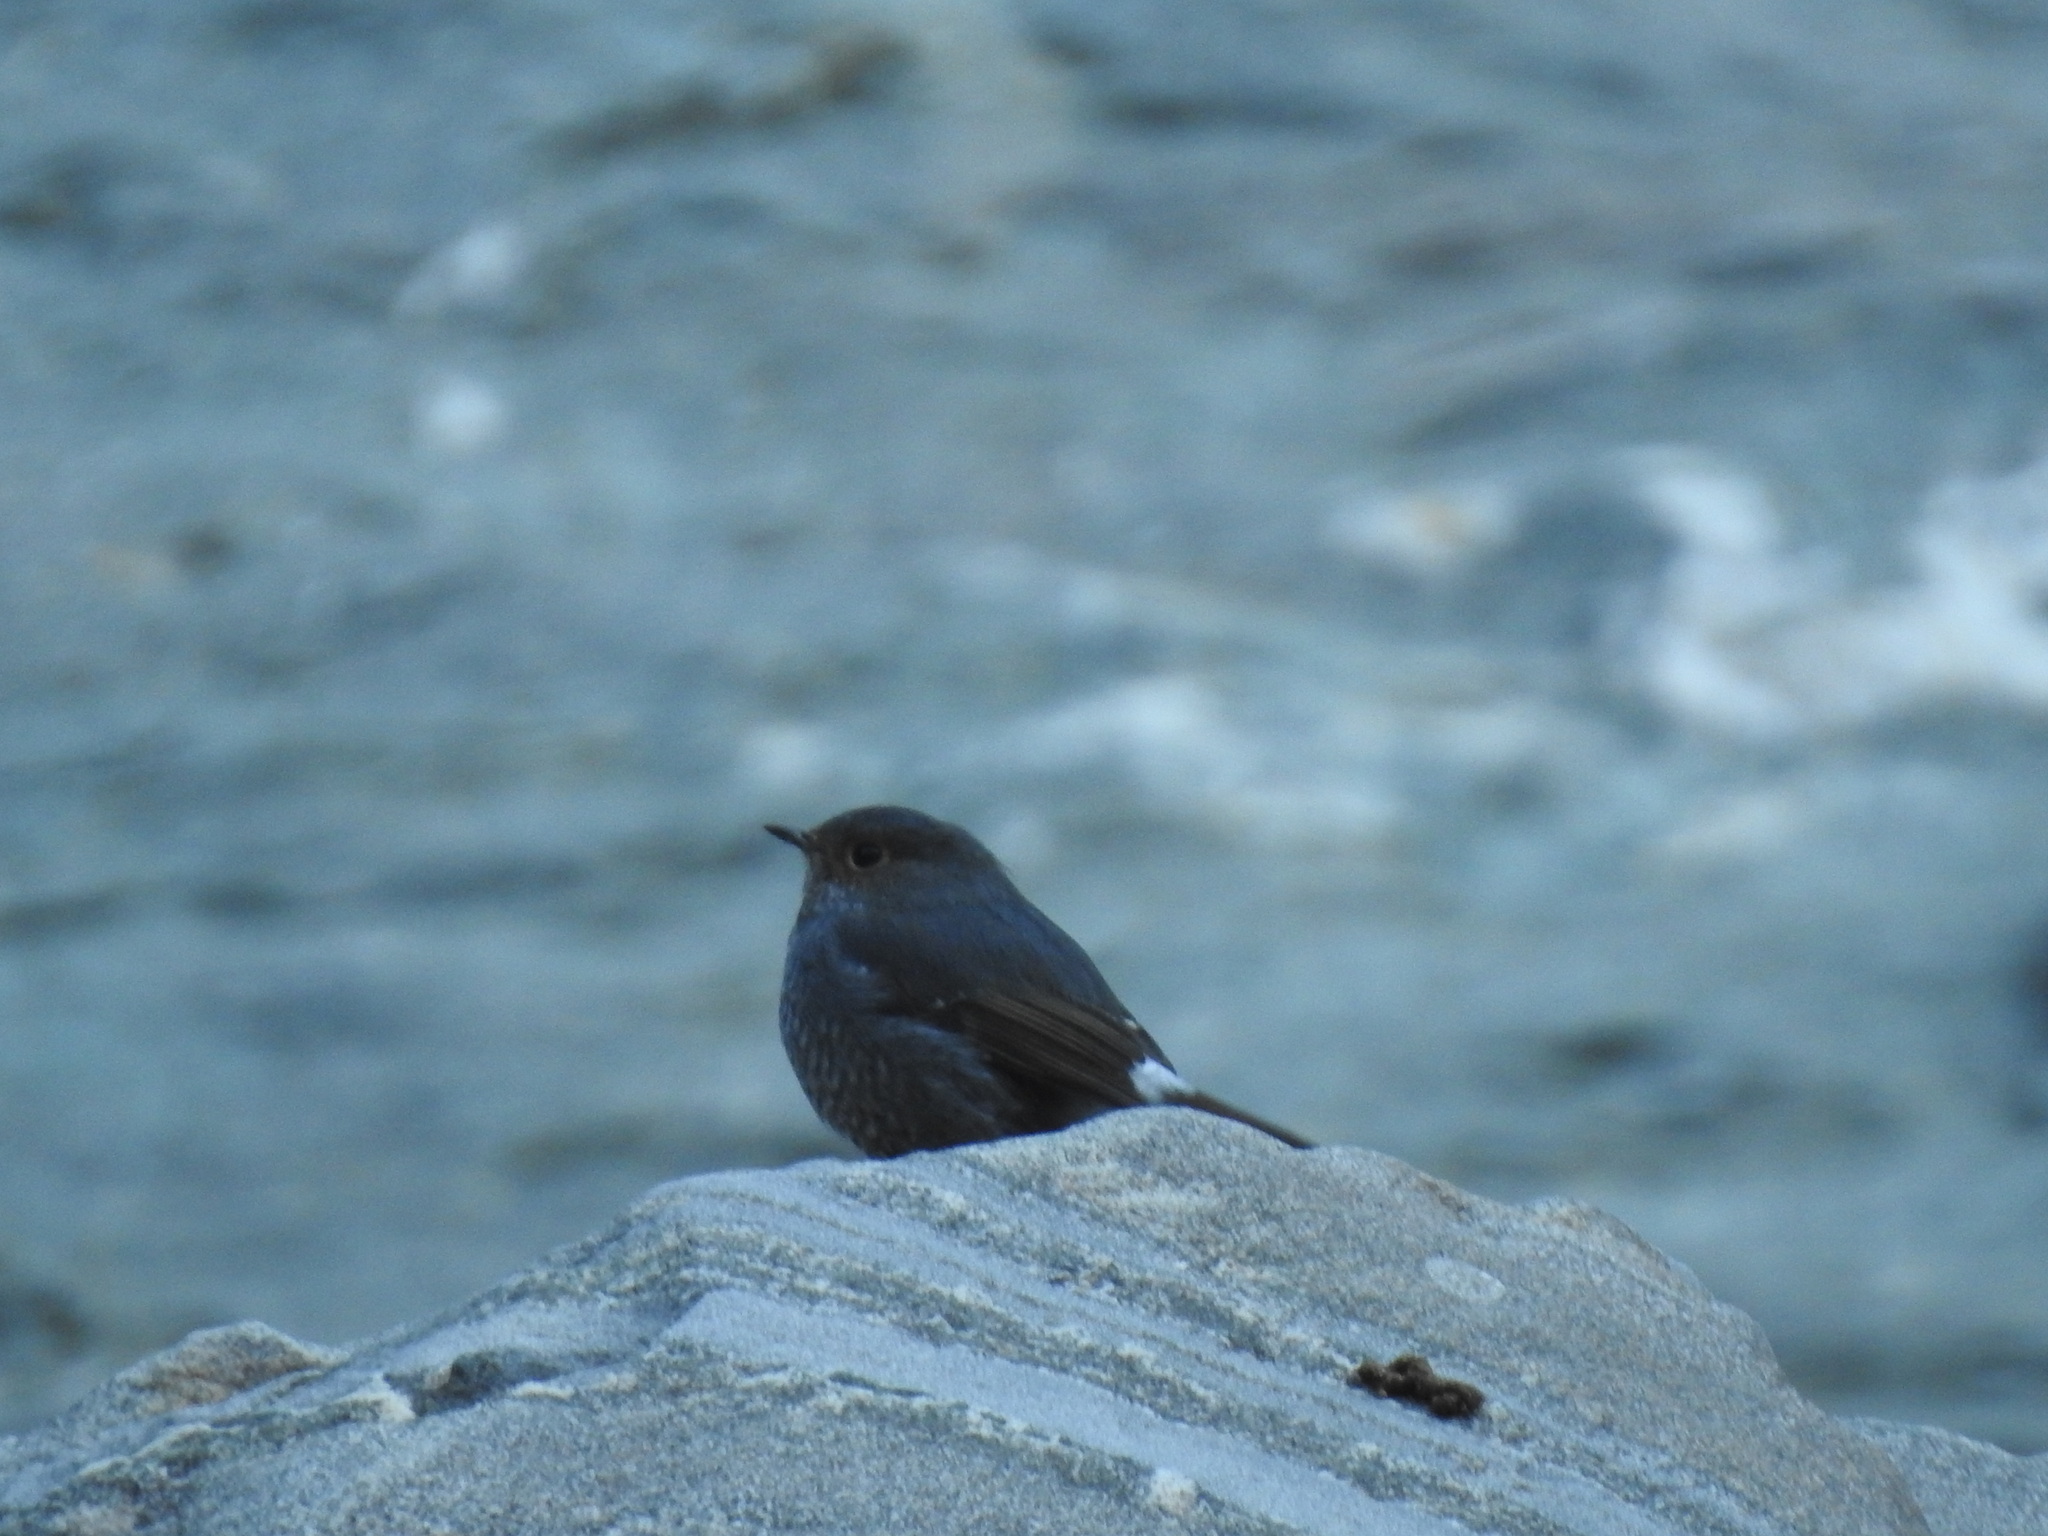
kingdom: Animalia
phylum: Chordata
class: Aves
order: Passeriformes
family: Muscicapidae
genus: Phoenicurus
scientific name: Phoenicurus fuliginosus
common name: Plumbeous water redstart
